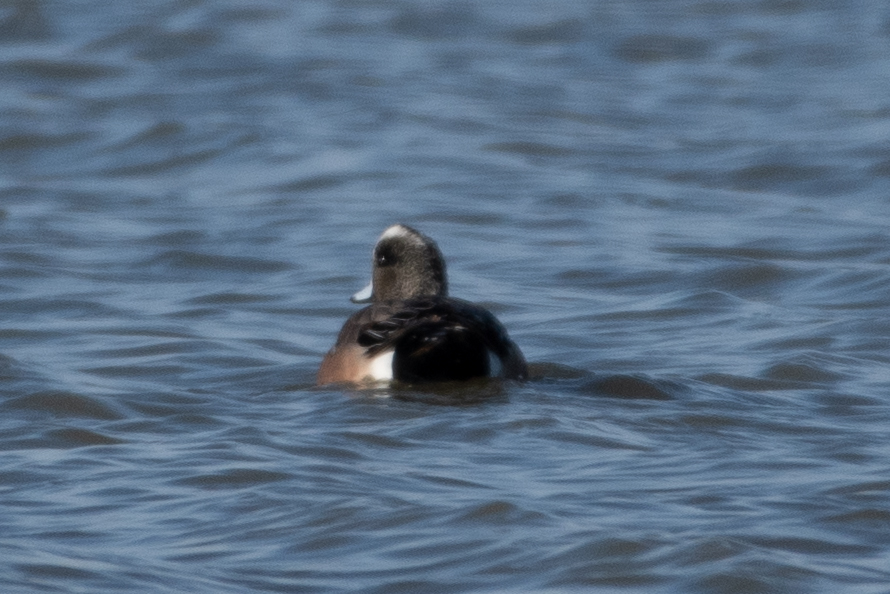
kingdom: Animalia
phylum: Chordata
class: Aves
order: Anseriformes
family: Anatidae
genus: Mareca
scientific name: Mareca americana
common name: American wigeon
